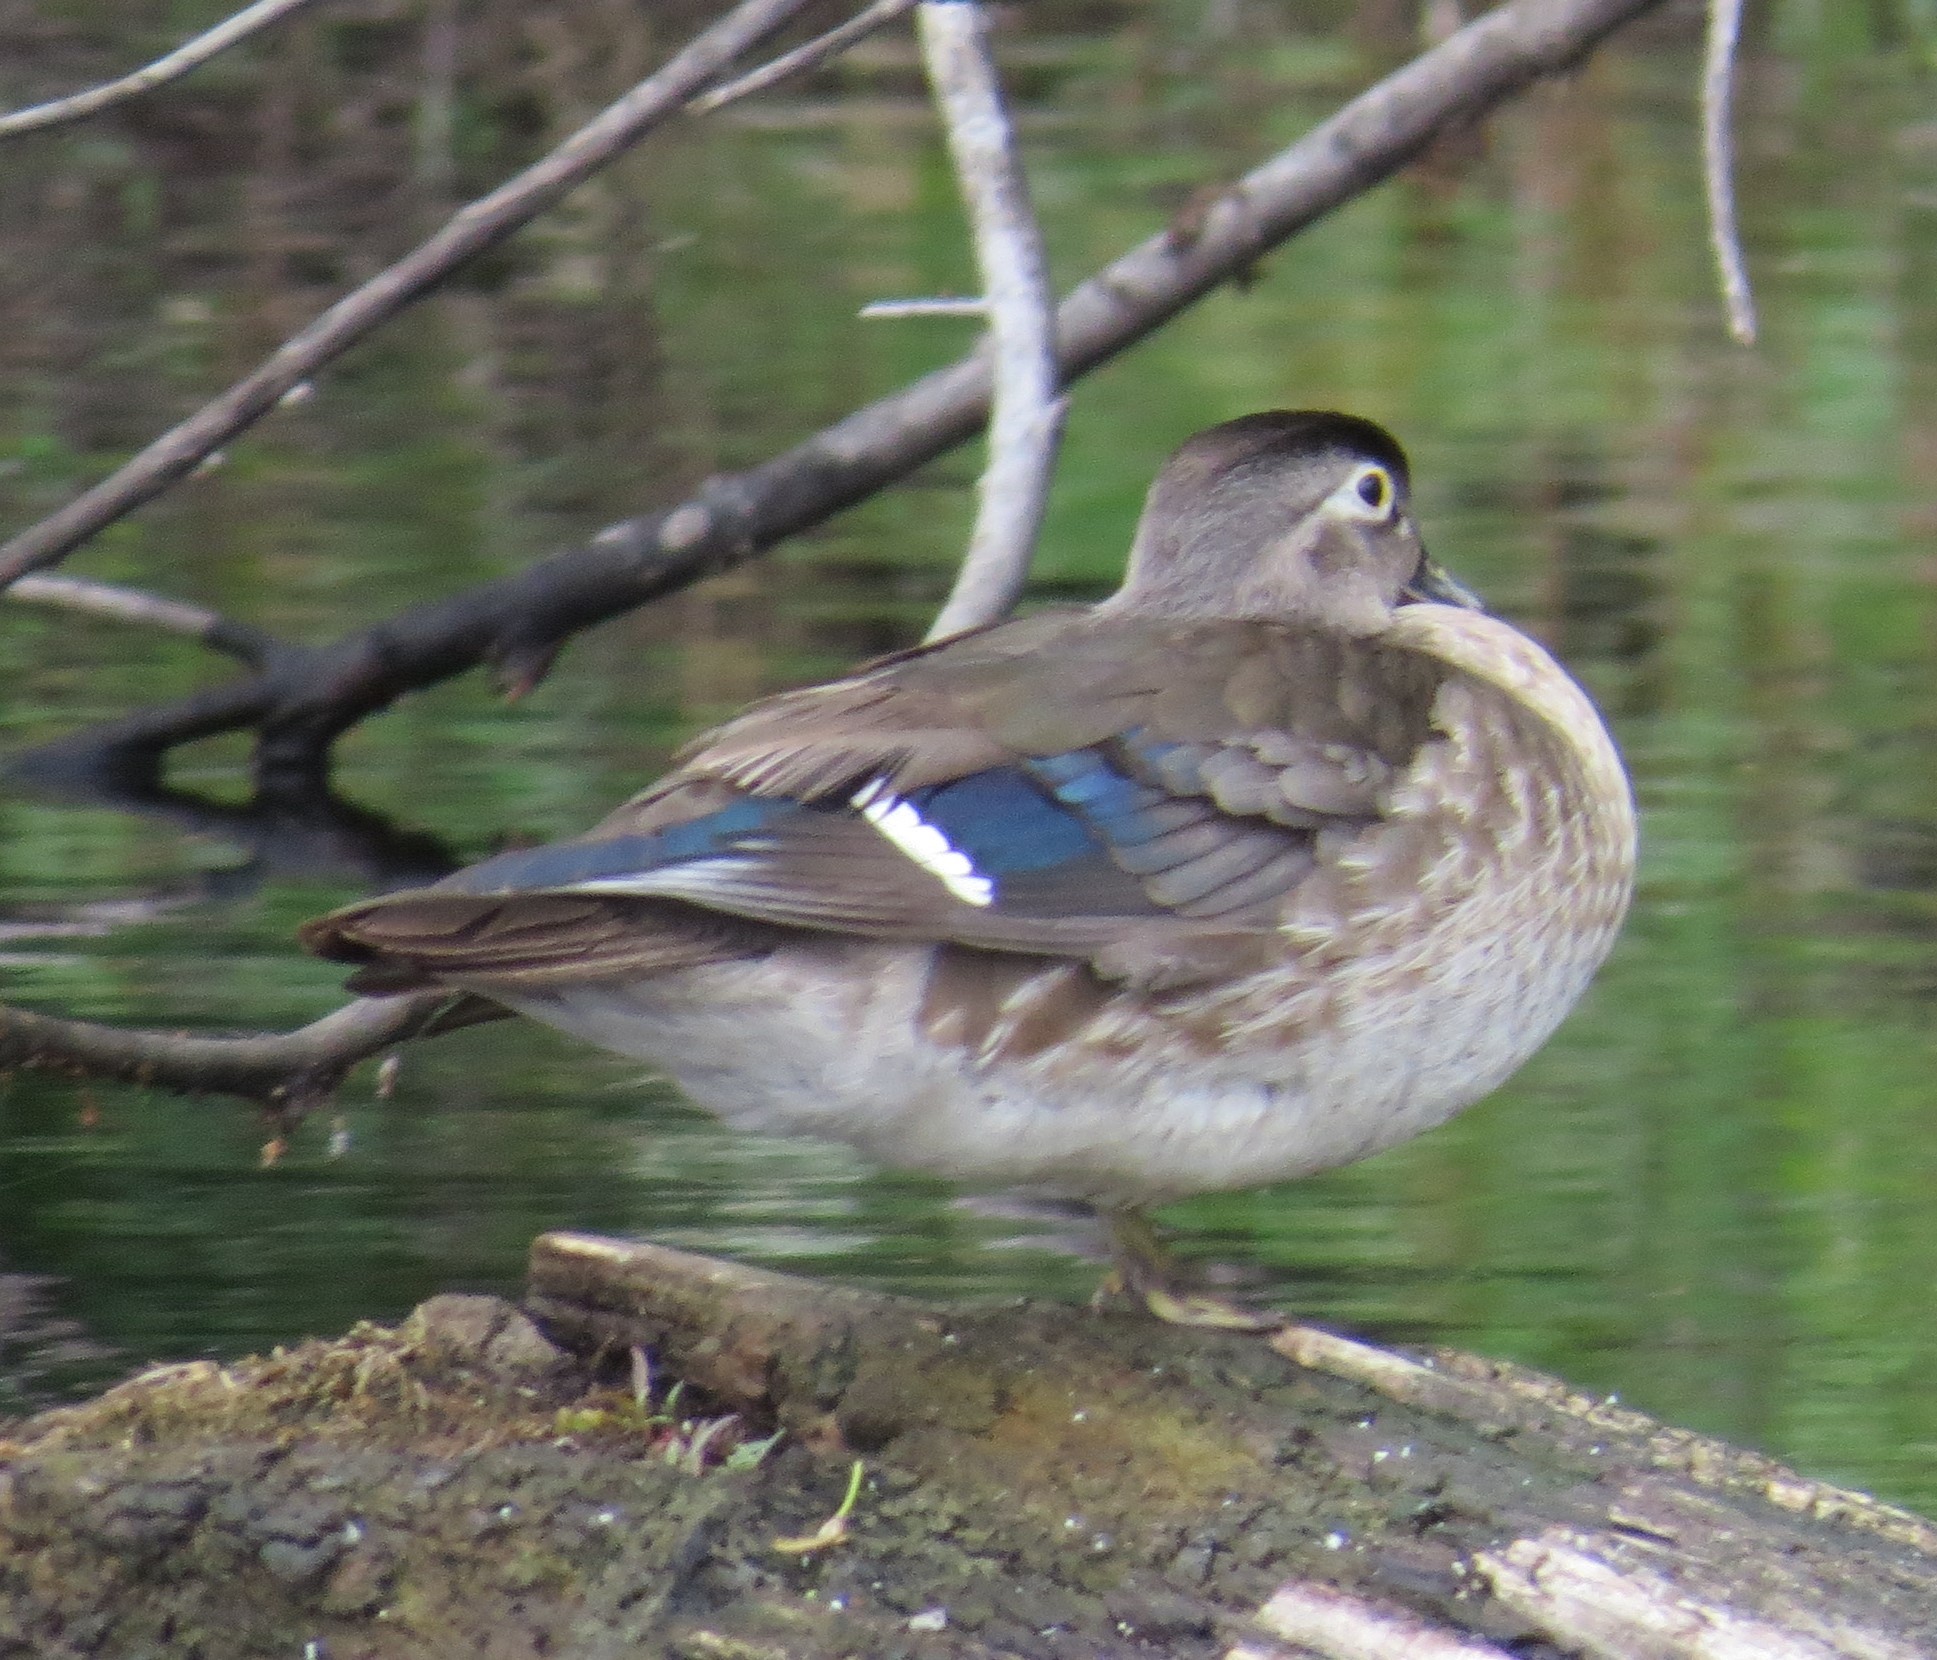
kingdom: Animalia
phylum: Chordata
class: Aves
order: Anseriformes
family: Anatidae
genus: Aix
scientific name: Aix sponsa
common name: Wood duck
